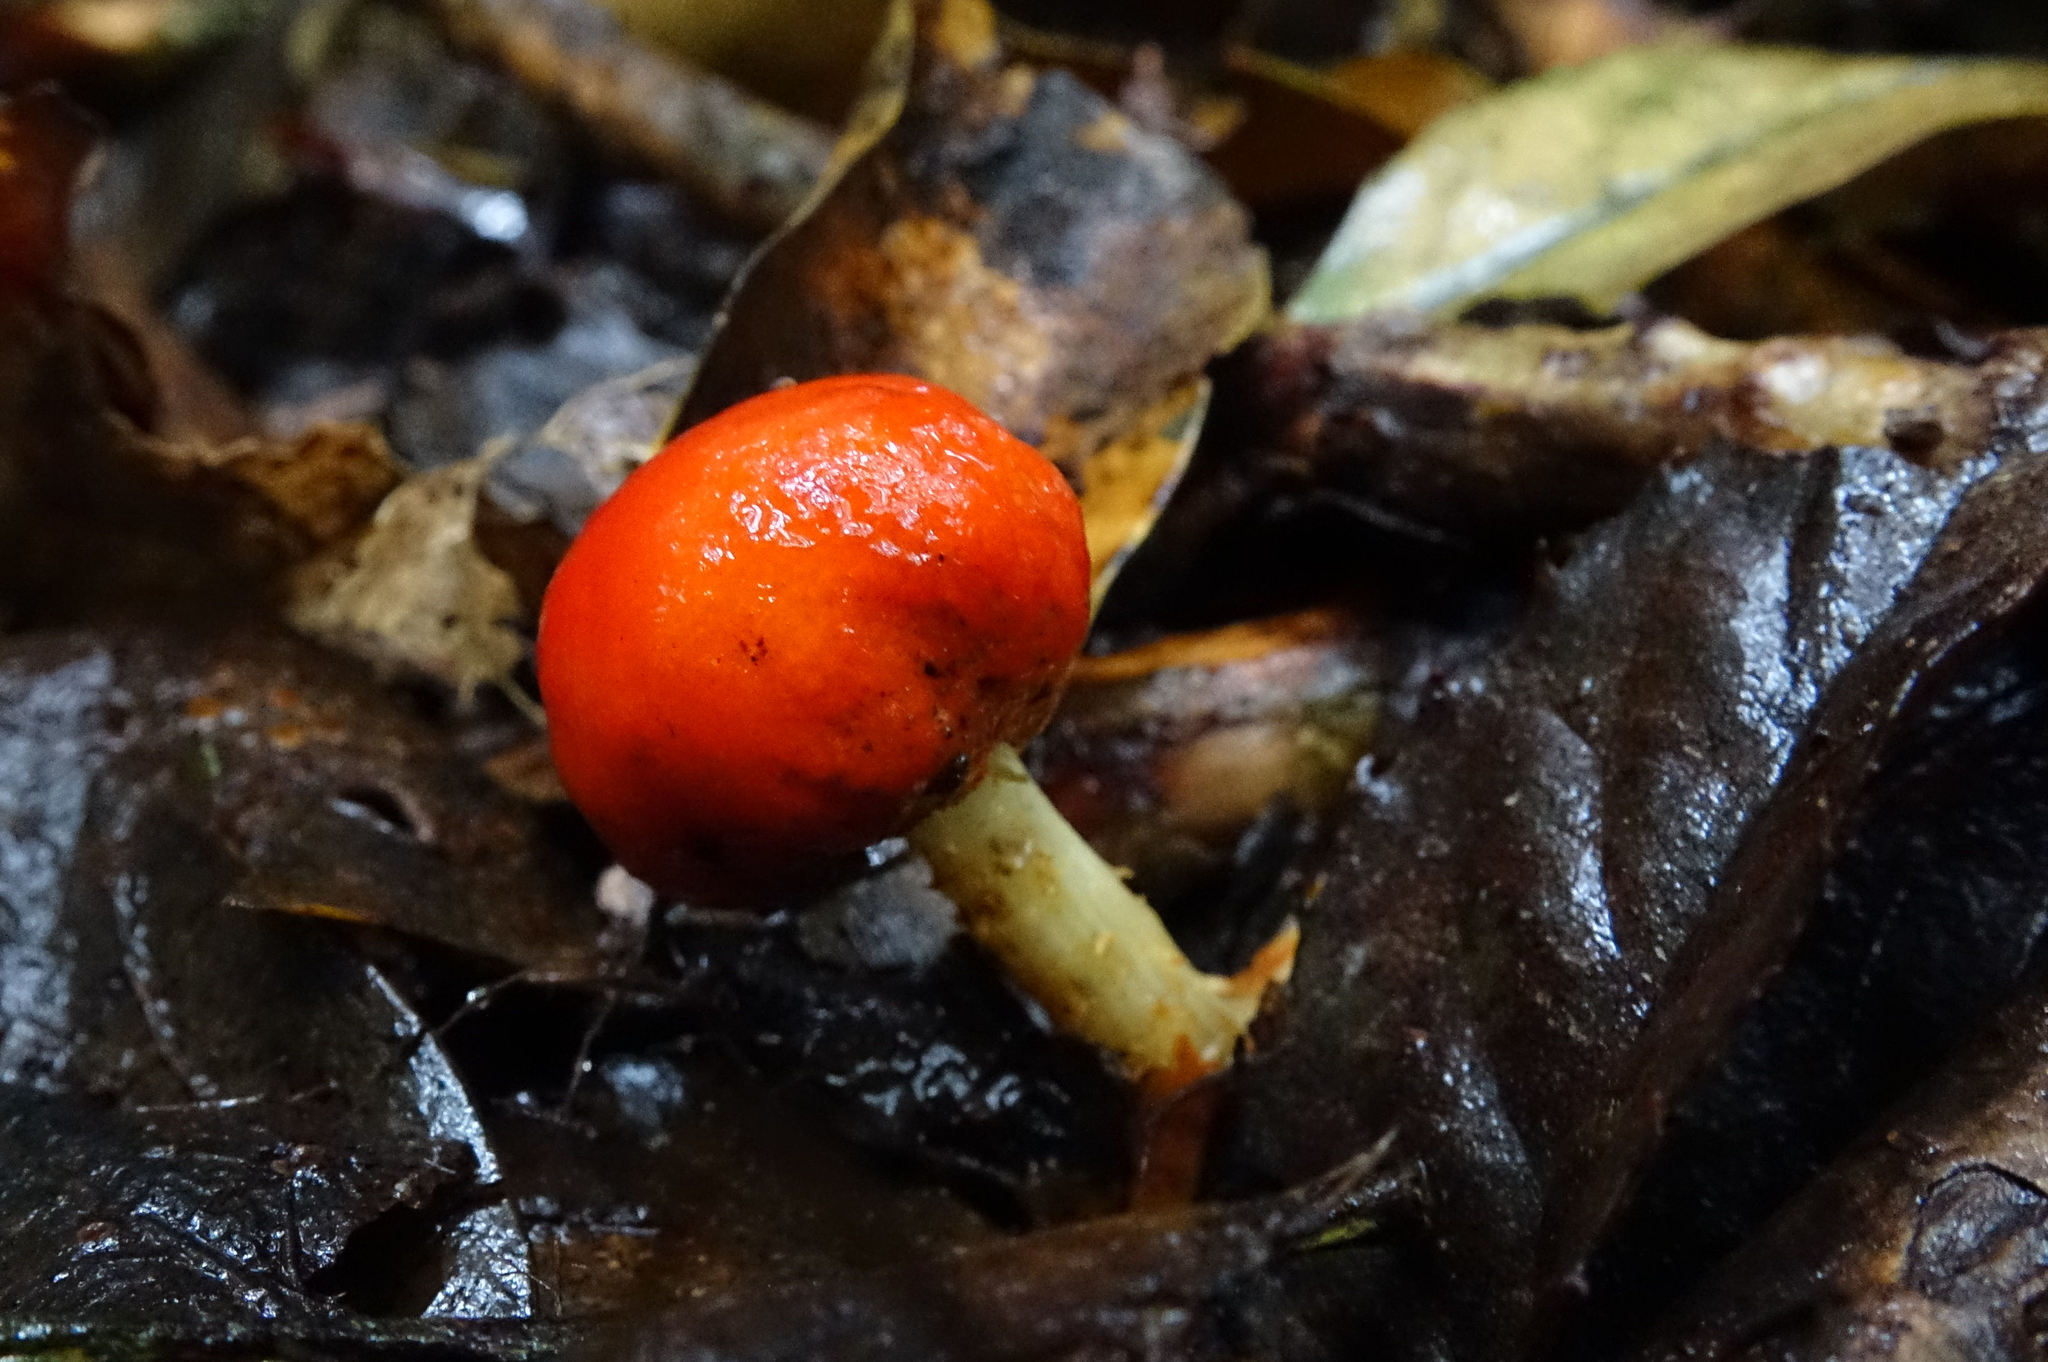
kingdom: Fungi
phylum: Basidiomycota
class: Agaricomycetes
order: Agaricales
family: Strophariaceae
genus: Leratiomyces
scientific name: Leratiomyces erythrocephalus
